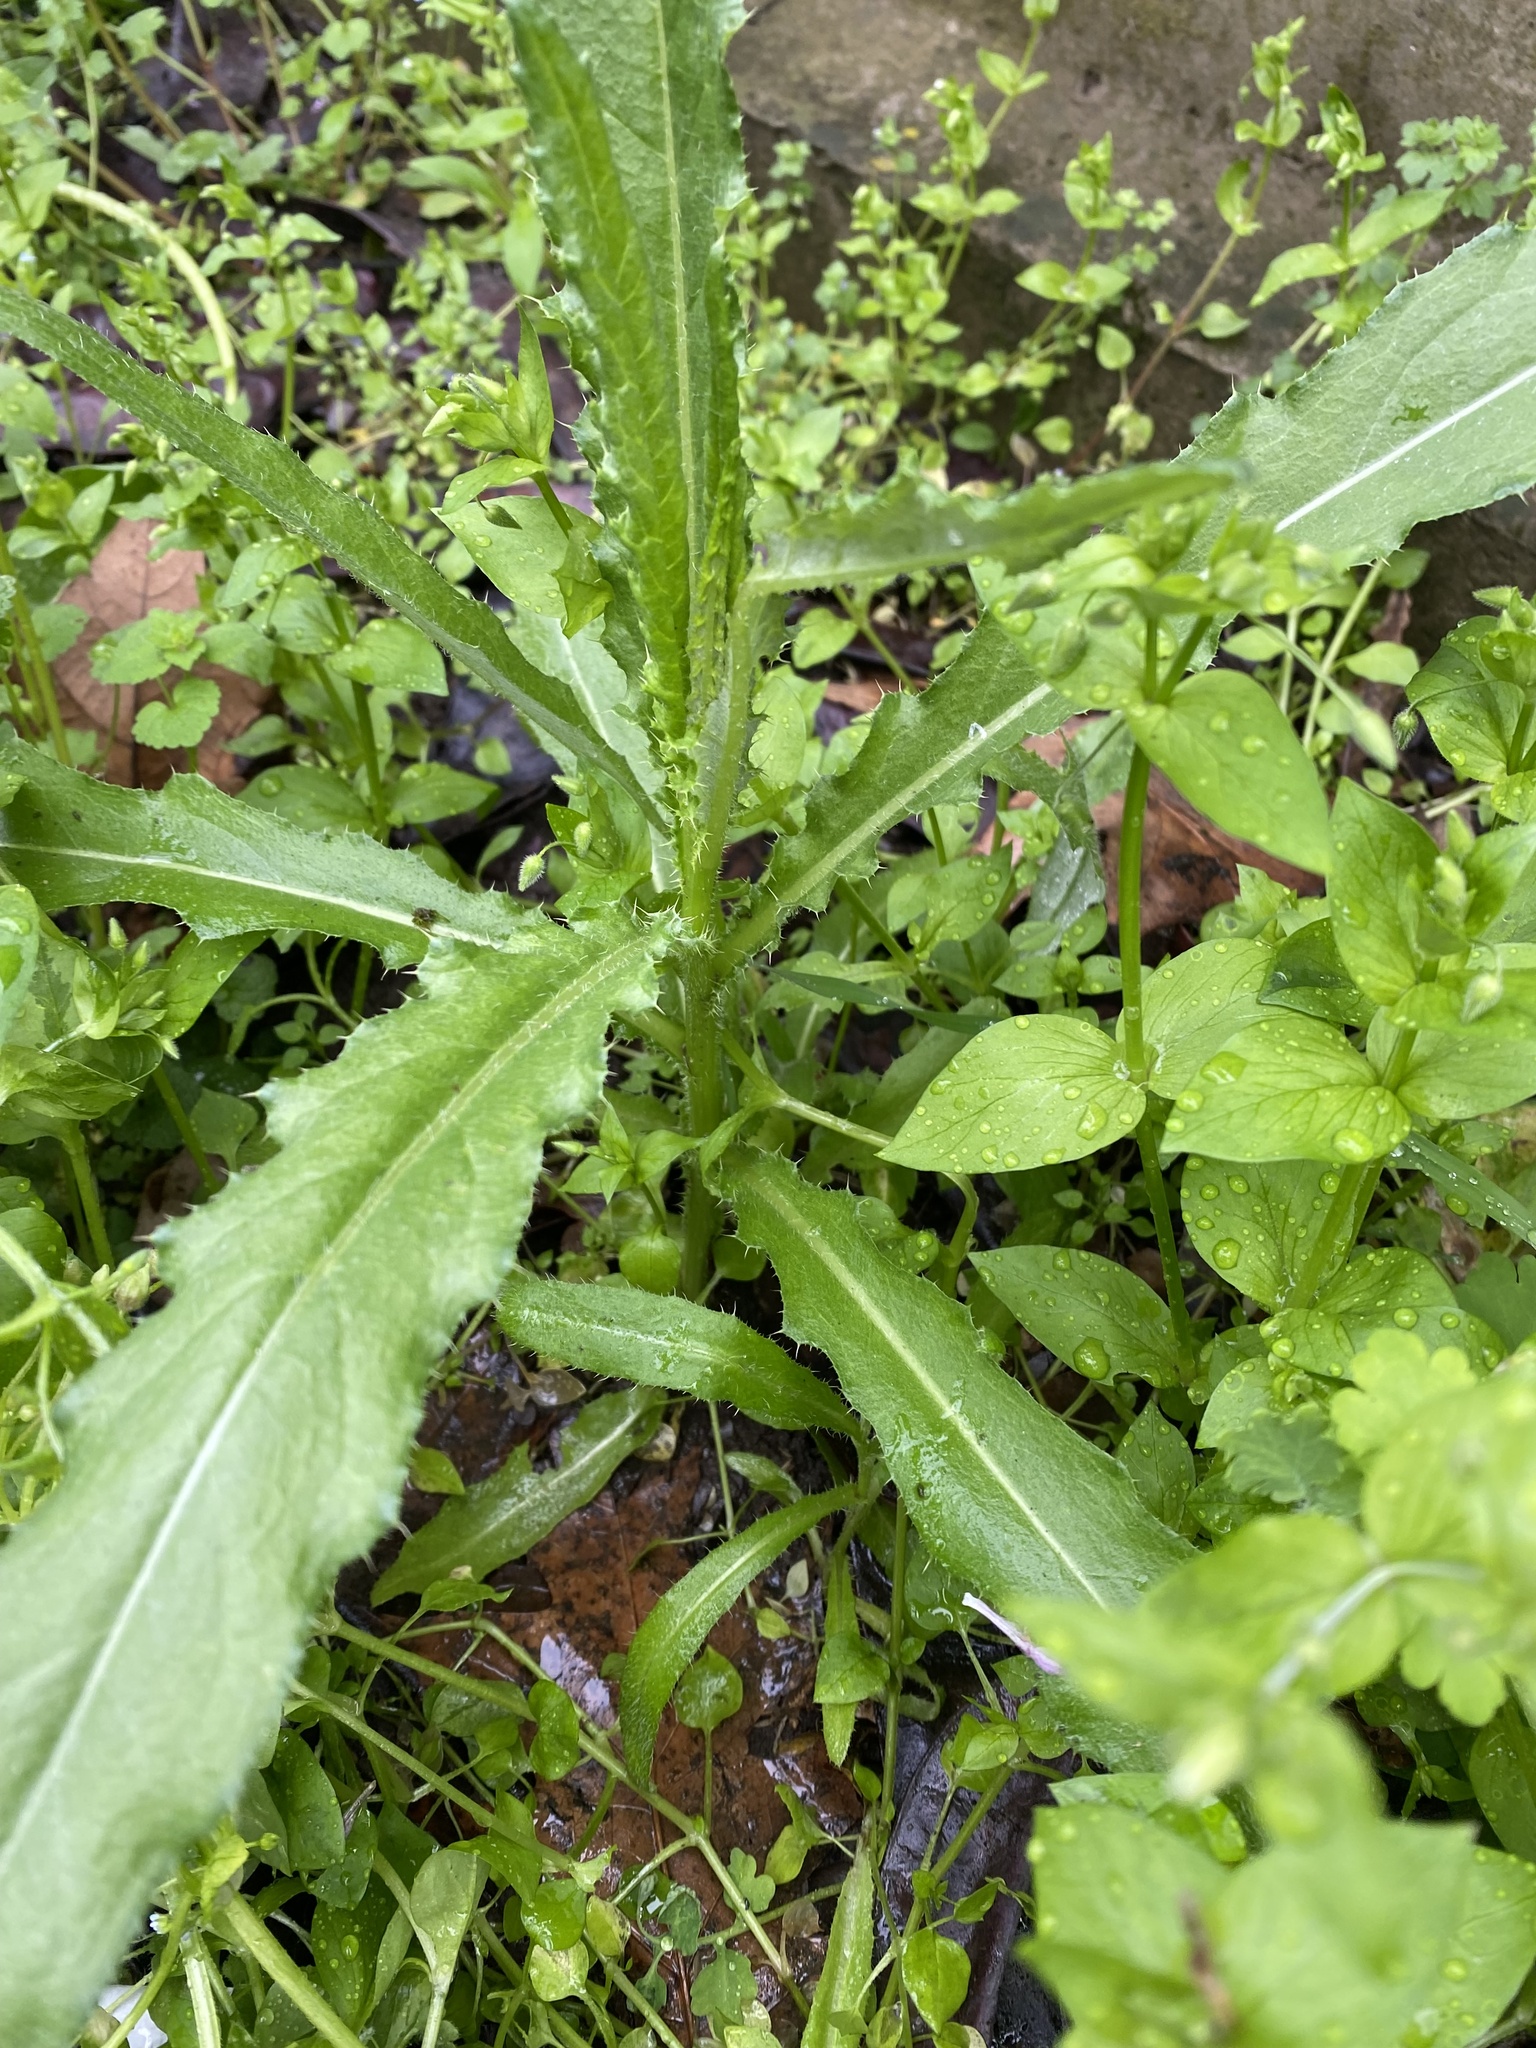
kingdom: Plantae
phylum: Tracheophyta
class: Magnoliopsida
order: Asterales
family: Asteraceae
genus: Cirsium
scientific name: Cirsium arvense
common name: Creeping thistle
